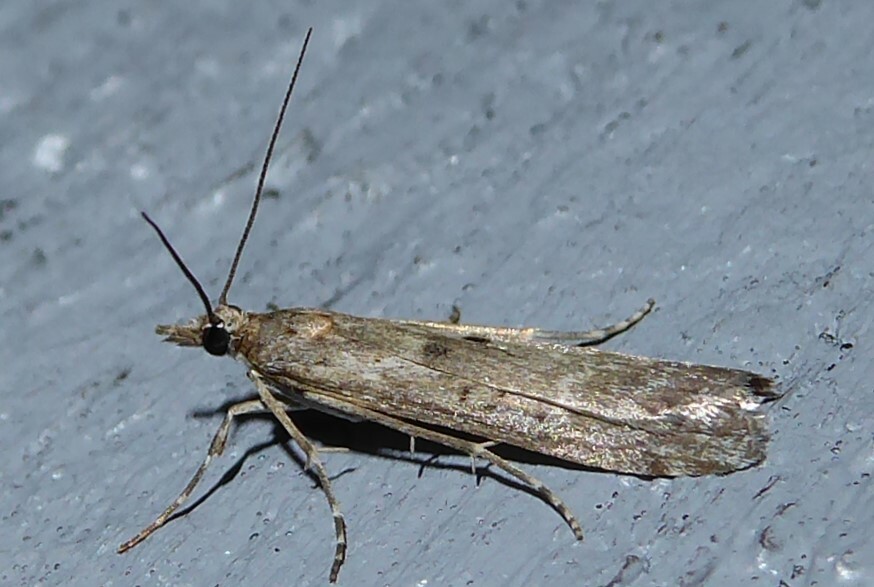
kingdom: Animalia
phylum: Arthropoda
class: Insecta
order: Lepidoptera
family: Crambidae
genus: Eudonia
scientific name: Eudonia leptalea
